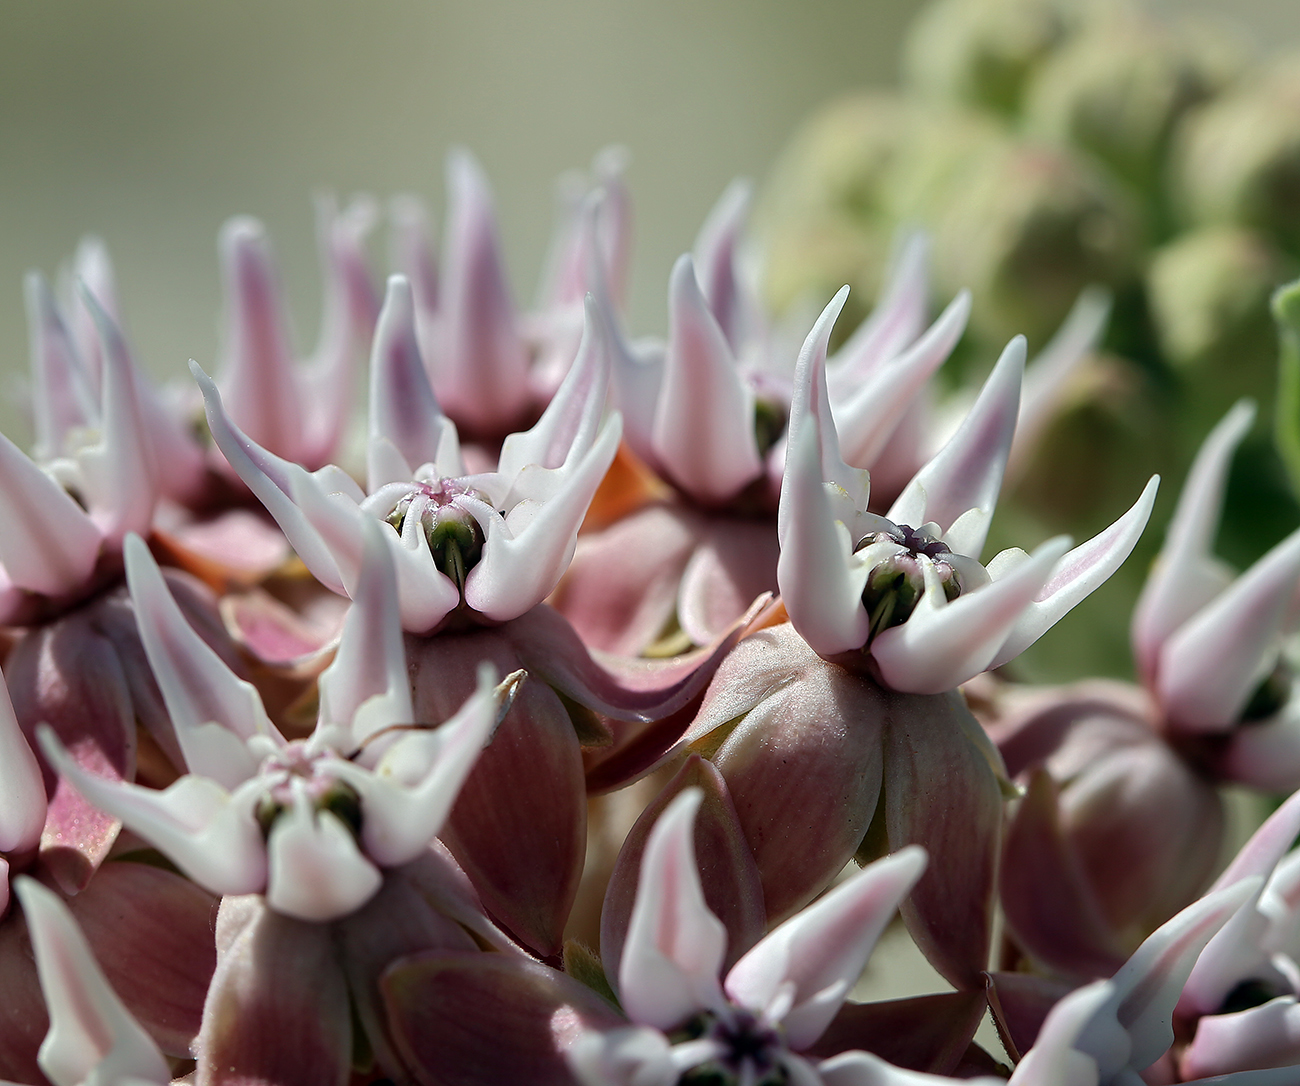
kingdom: Plantae
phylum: Tracheophyta
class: Magnoliopsida
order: Gentianales
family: Apocynaceae
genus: Asclepias
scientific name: Asclepias speciosa
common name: Showy milkweed
